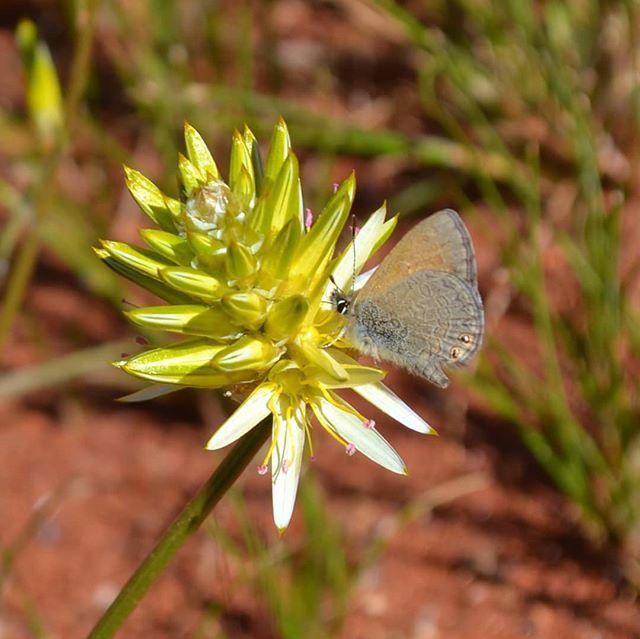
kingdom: Plantae
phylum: Tracheophyta
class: Magnoliopsida
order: Caryophyllales
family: Amaranthaceae
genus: Ptilotus
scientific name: Ptilotus gaudichaudii
